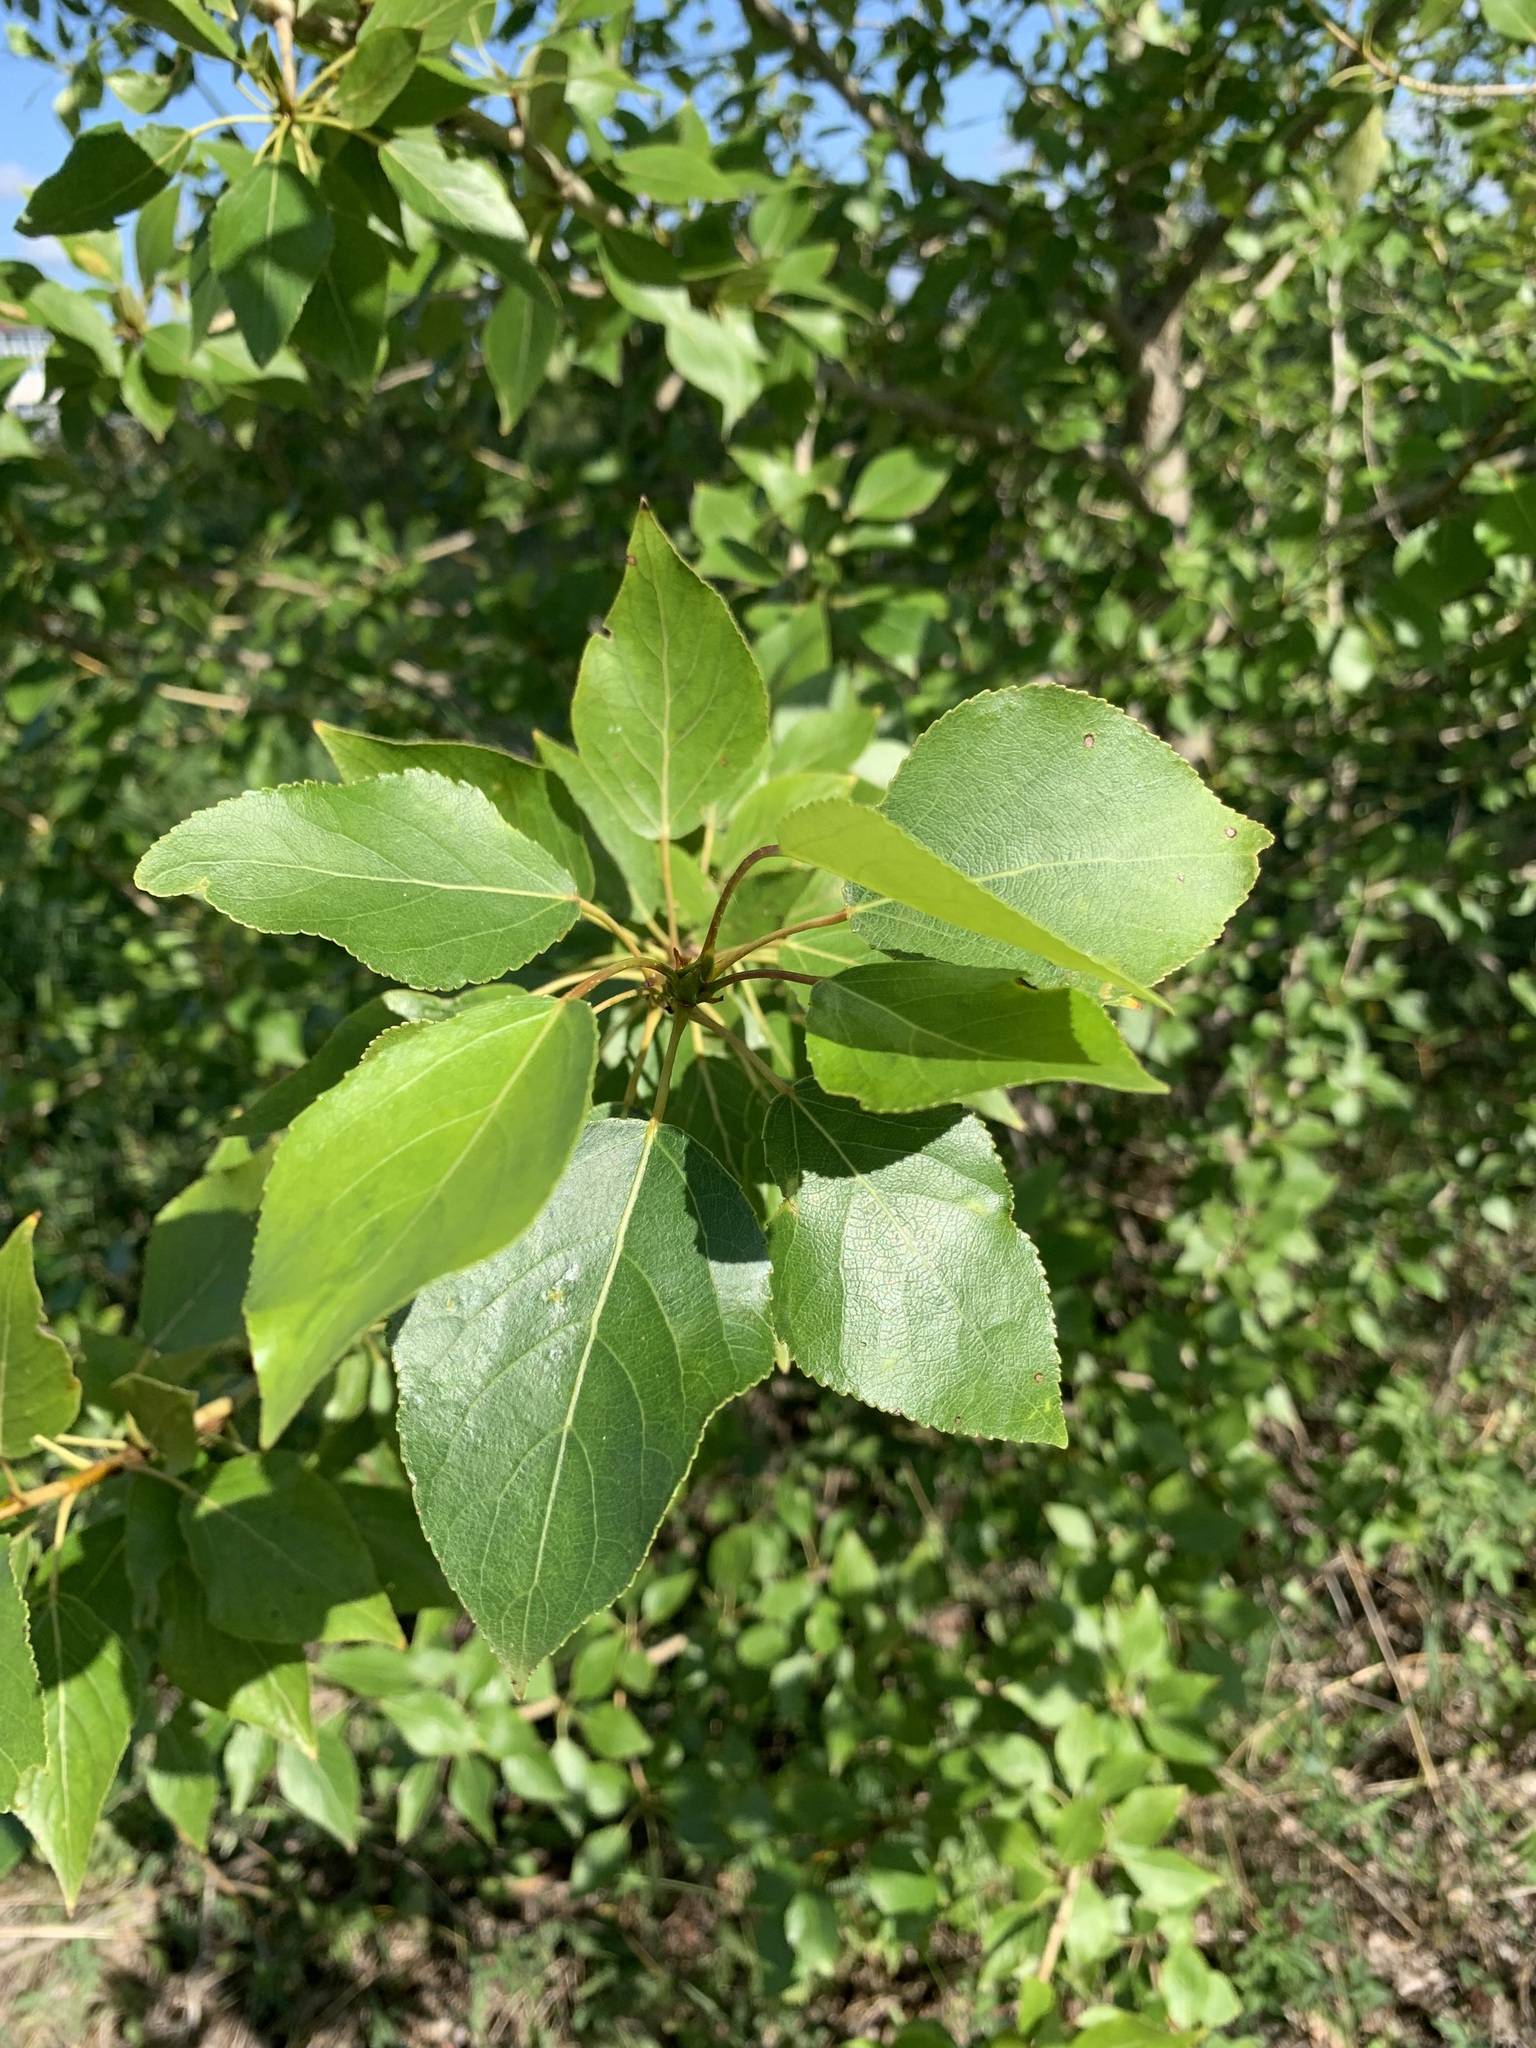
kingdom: Plantae
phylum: Tracheophyta
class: Magnoliopsida
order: Malpighiales
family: Salicaceae
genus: Populus
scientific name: Populus sibirica
